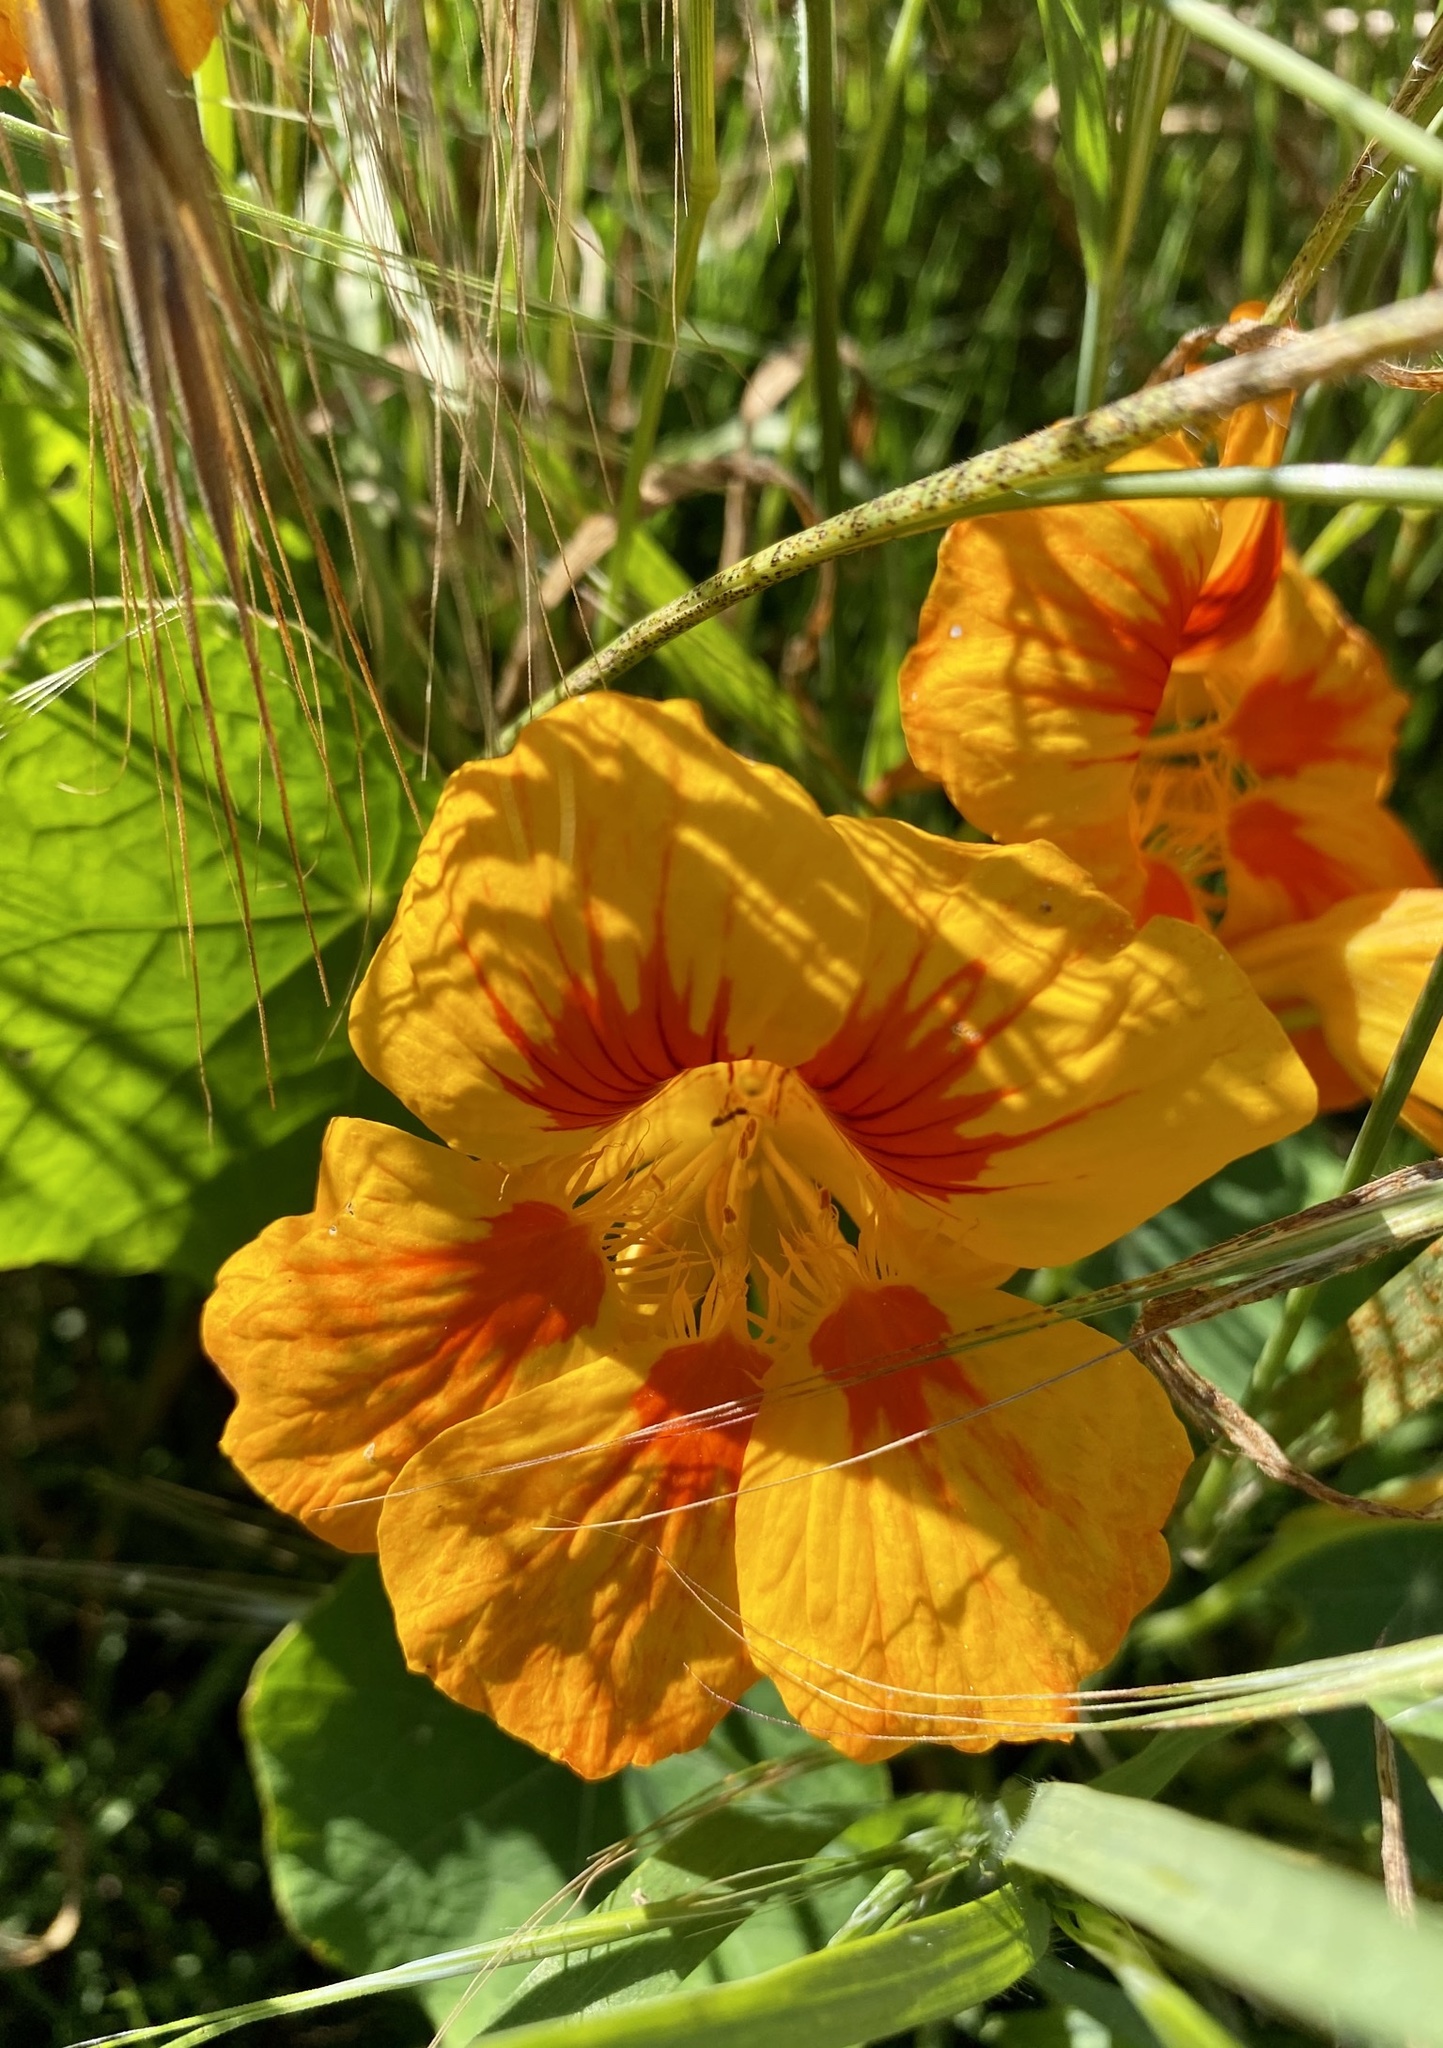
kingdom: Plantae
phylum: Tracheophyta
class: Magnoliopsida
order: Brassicales
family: Tropaeolaceae
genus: Tropaeolum
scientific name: Tropaeolum majus
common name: Nasturtium
